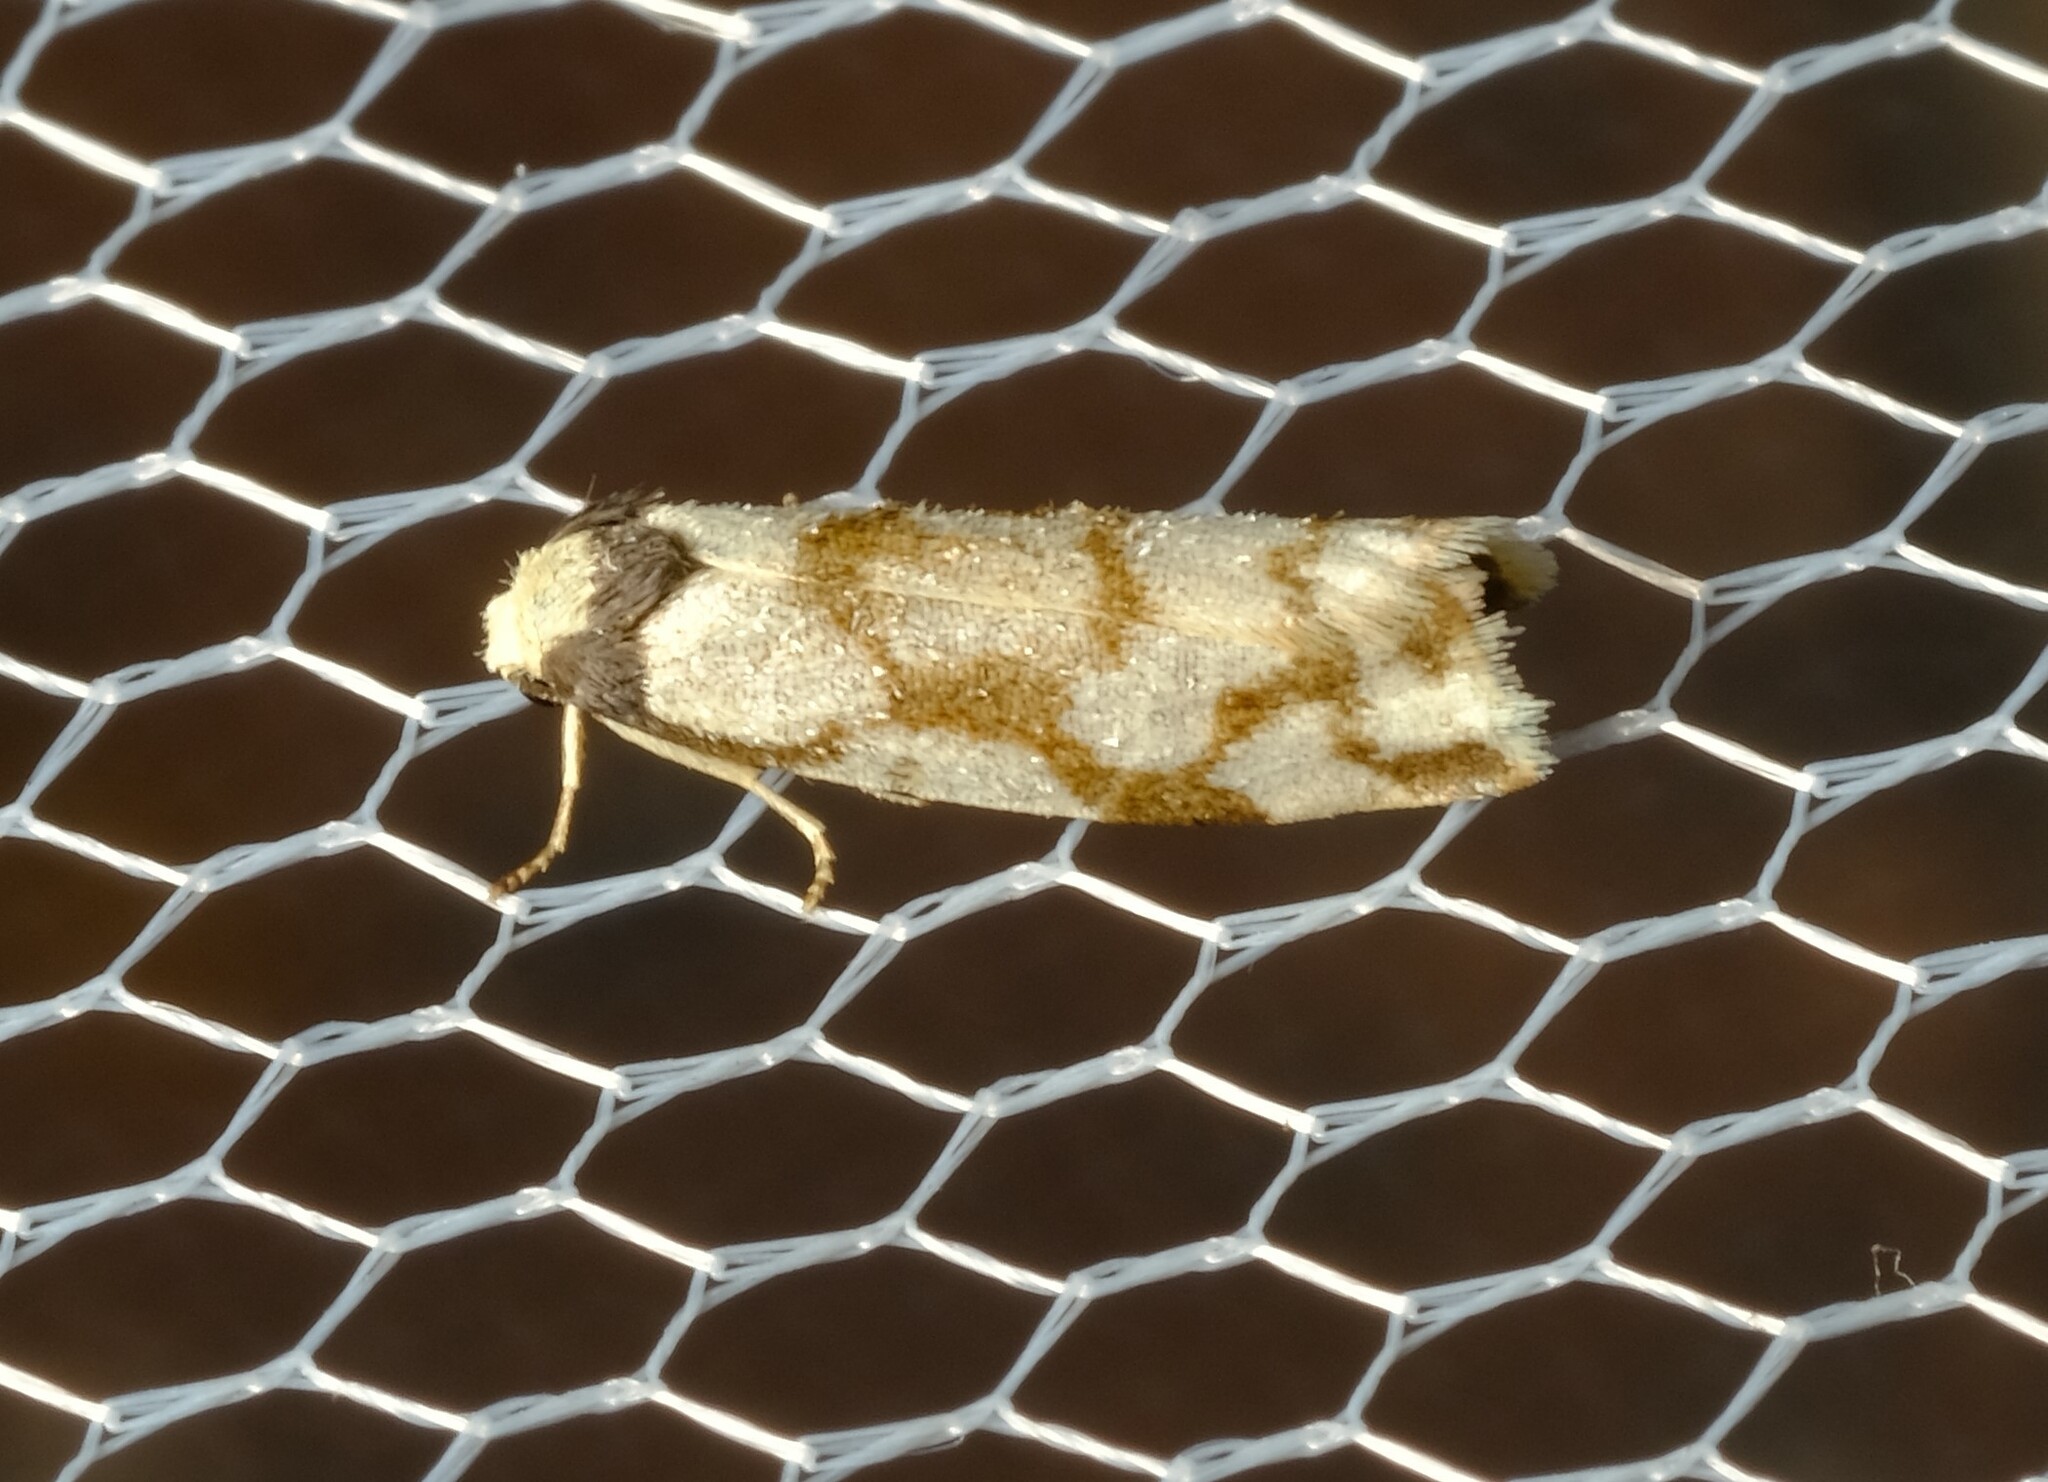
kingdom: Animalia
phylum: Arthropoda
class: Insecta
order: Lepidoptera
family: Erebidae
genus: Scaptesyle
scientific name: Scaptesyle dichotoma
